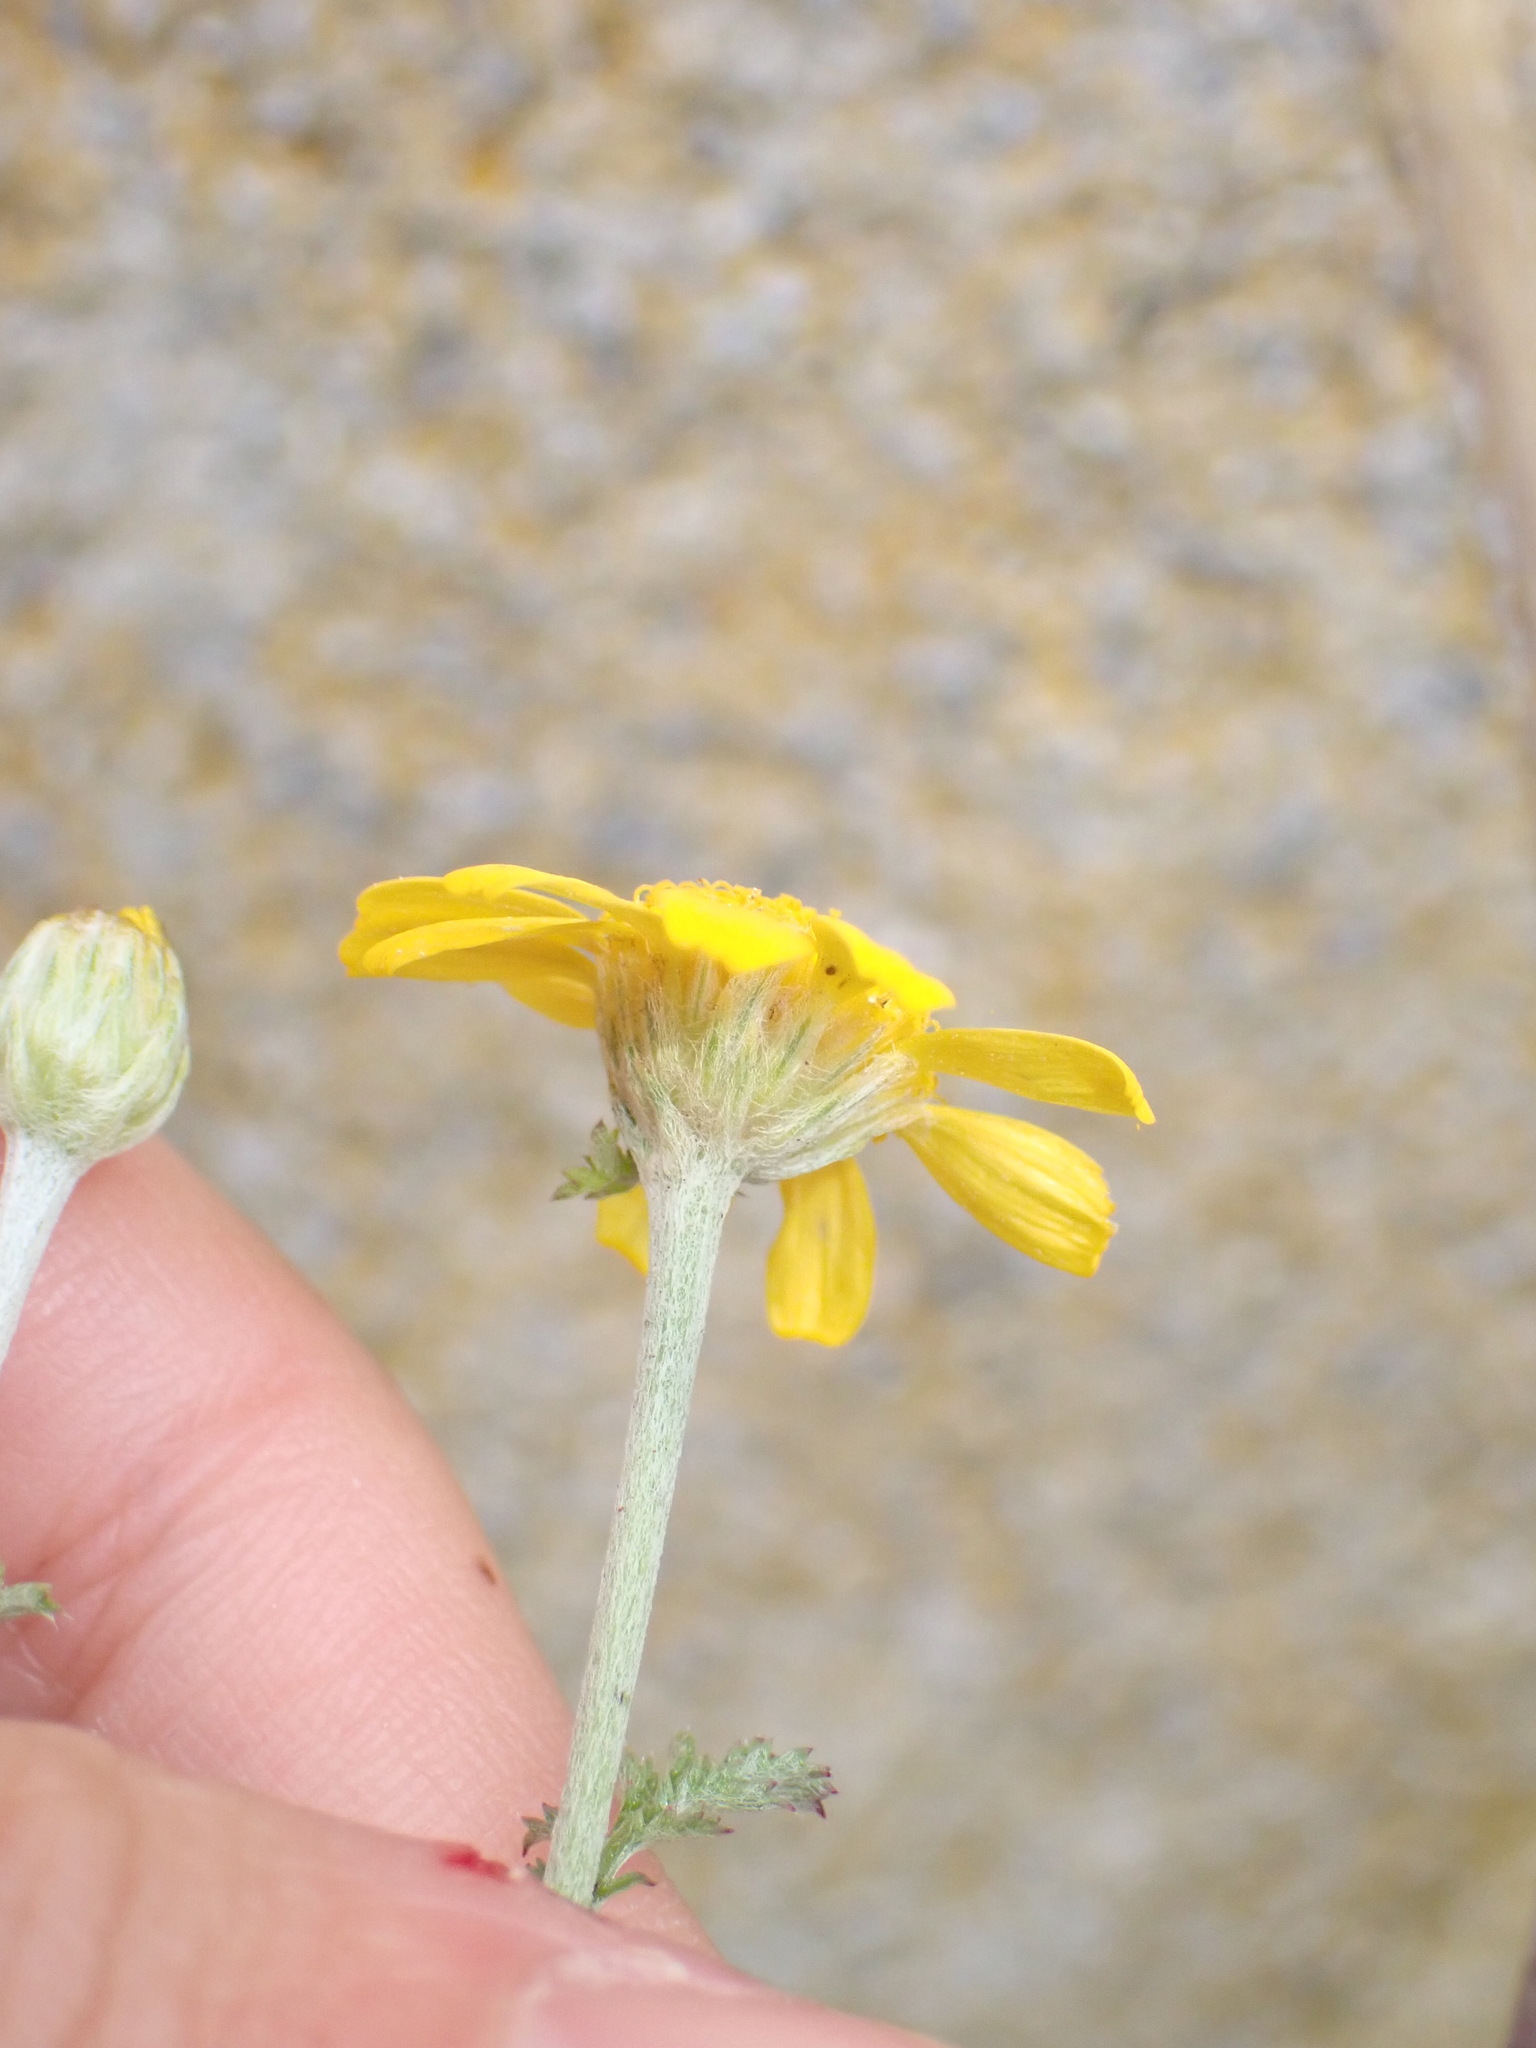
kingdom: Plantae
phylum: Tracheophyta
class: Magnoliopsida
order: Asterales
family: Asteraceae
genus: Cota
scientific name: Cota tinctoria
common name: Golden chamomile
